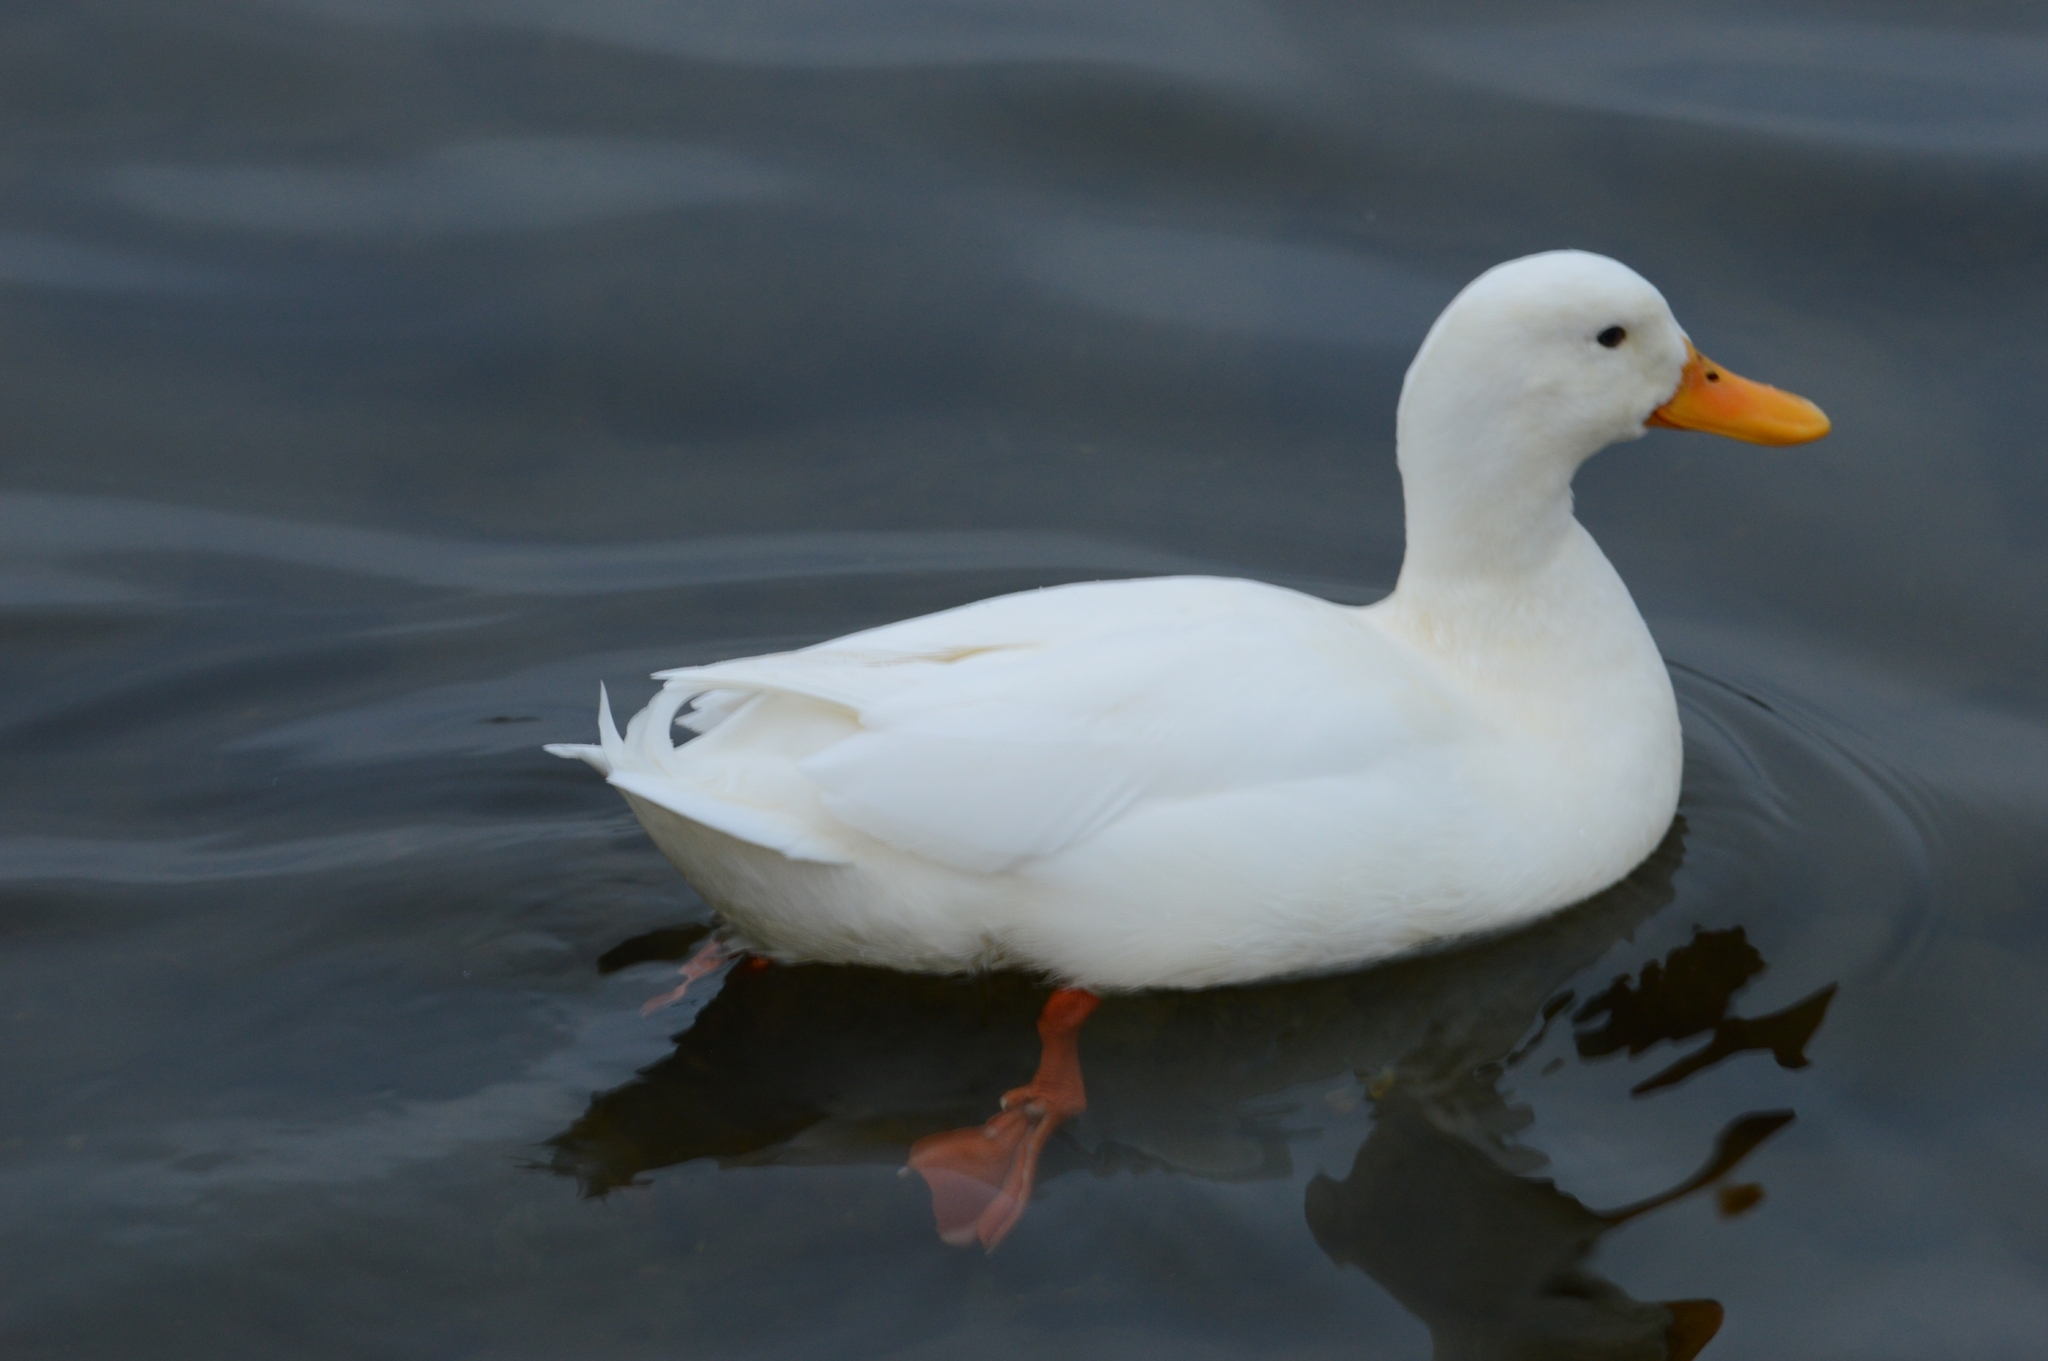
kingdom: Animalia
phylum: Chordata
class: Aves
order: Anseriformes
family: Anatidae
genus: Anas
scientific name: Anas platyrhynchos
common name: Mallard
